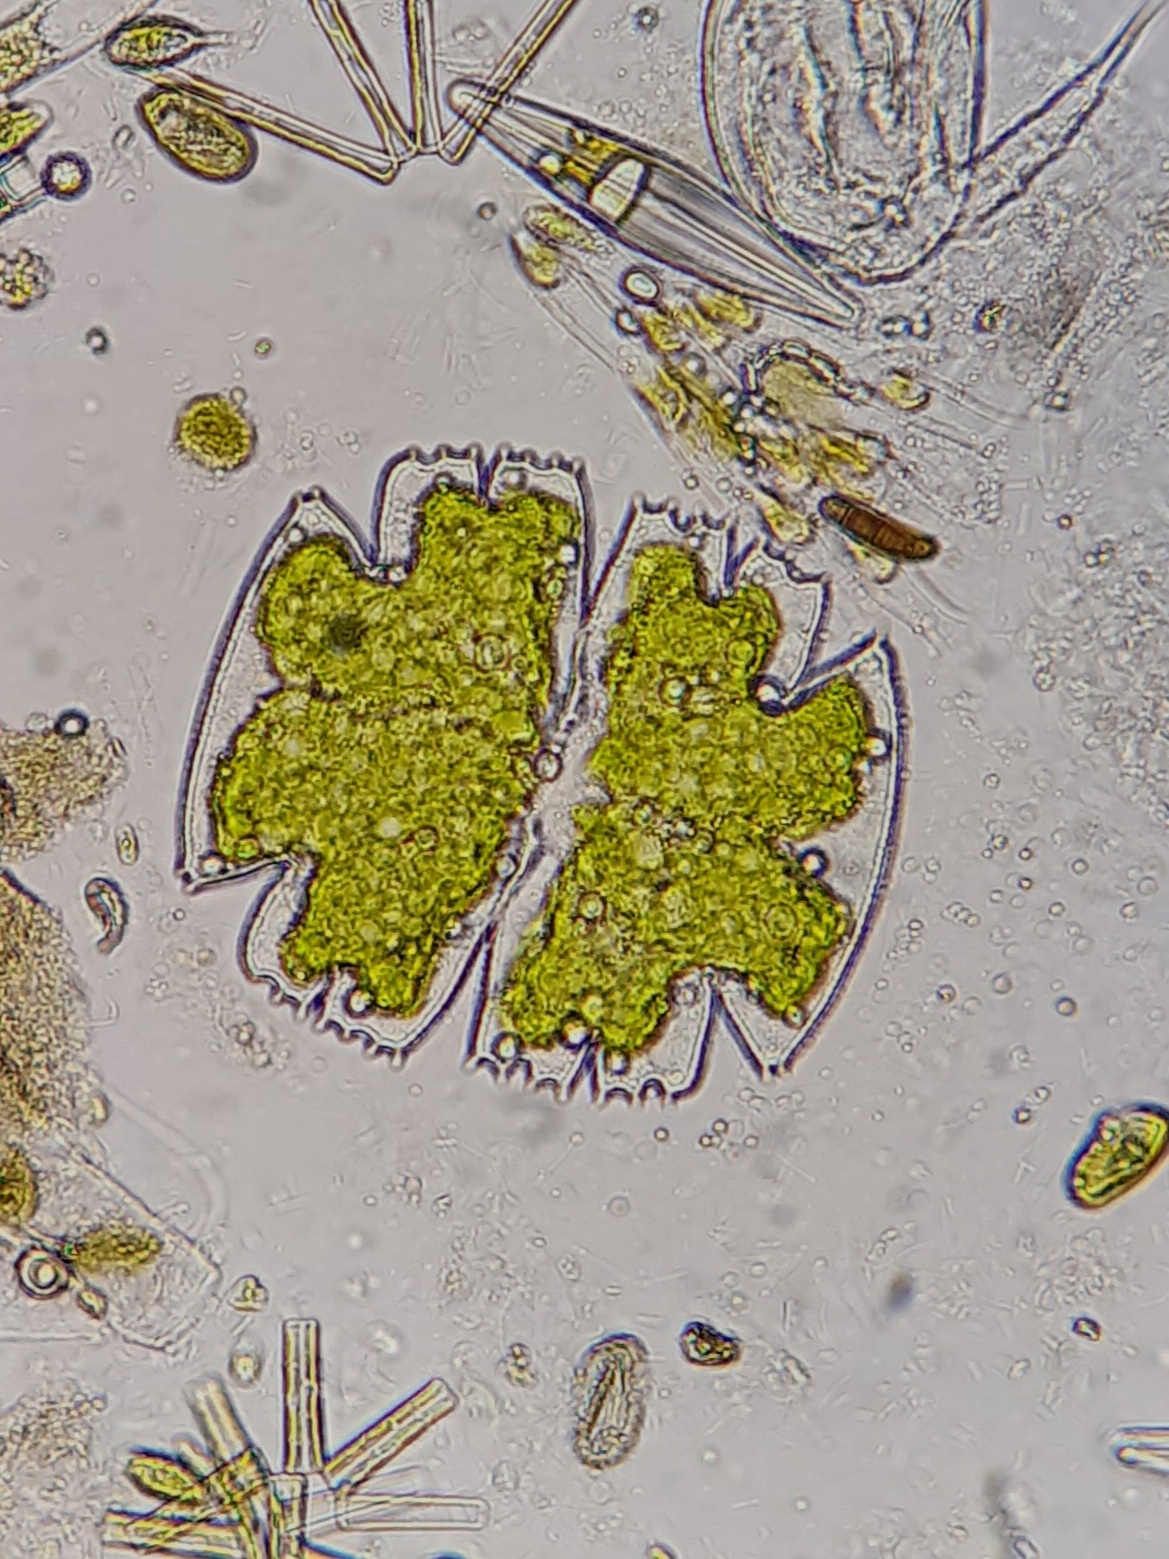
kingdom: Plantae
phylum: Charophyta
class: Conjugatophyceae
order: Desmidiales
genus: Micrasterias
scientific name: Micrasterias truncata
